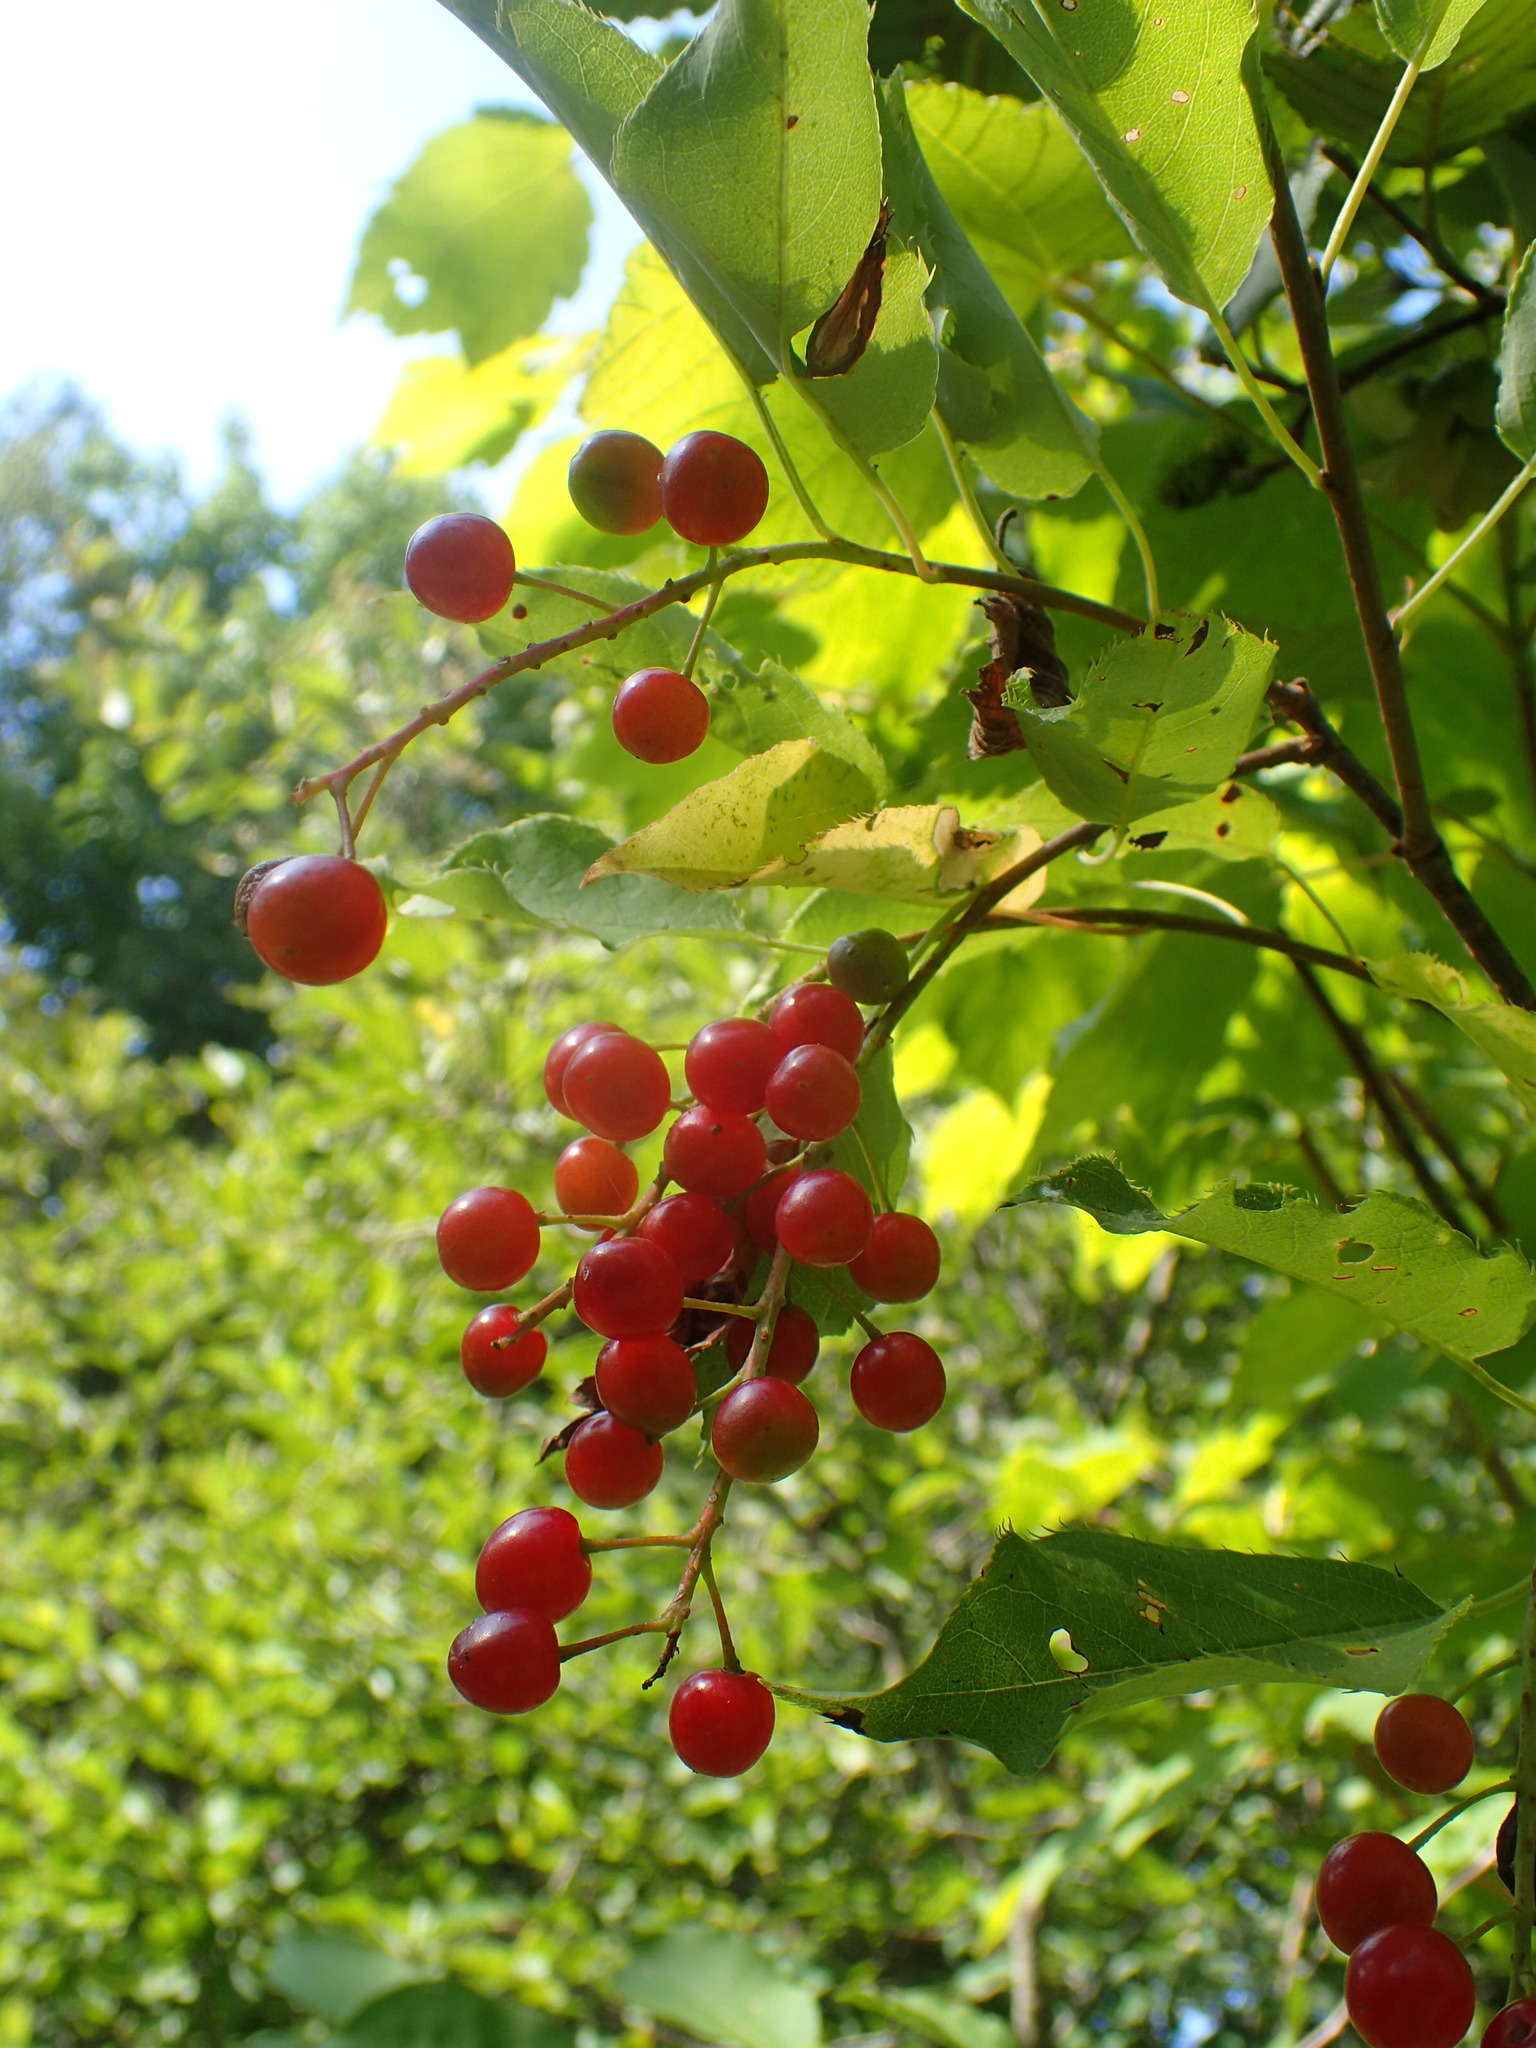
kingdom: Plantae
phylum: Tracheophyta
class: Magnoliopsida
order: Rosales
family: Rosaceae
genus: Prunus
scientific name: Prunus virginiana
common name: Chokecherry
